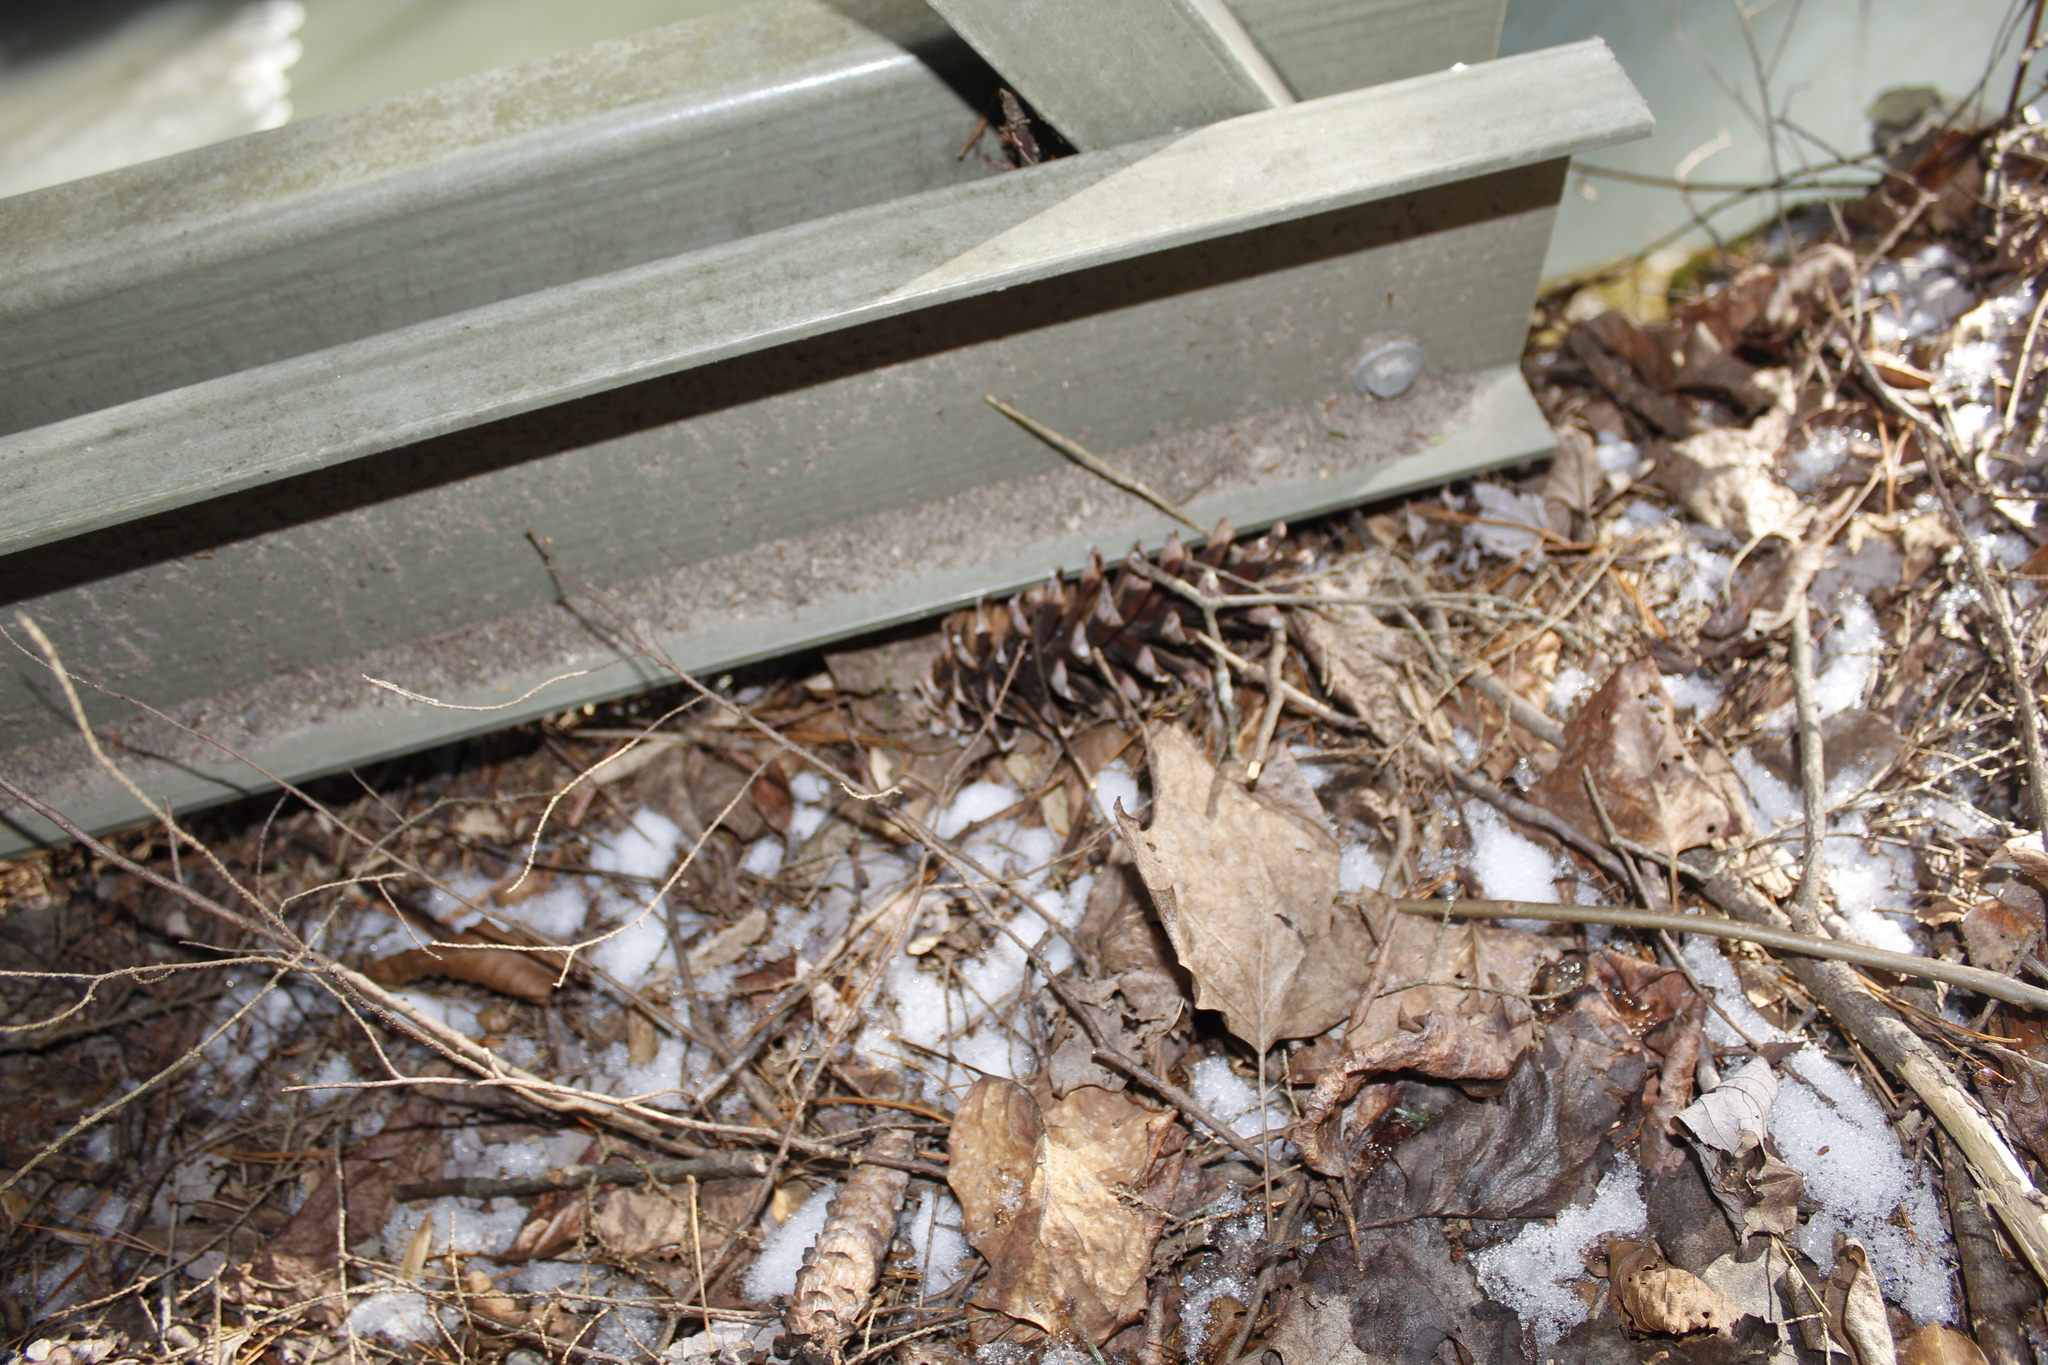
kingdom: Plantae
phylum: Tracheophyta
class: Pinopsida
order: Pinales
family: Pinaceae
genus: Pinus
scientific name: Pinus strobus
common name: Weymouth pine
